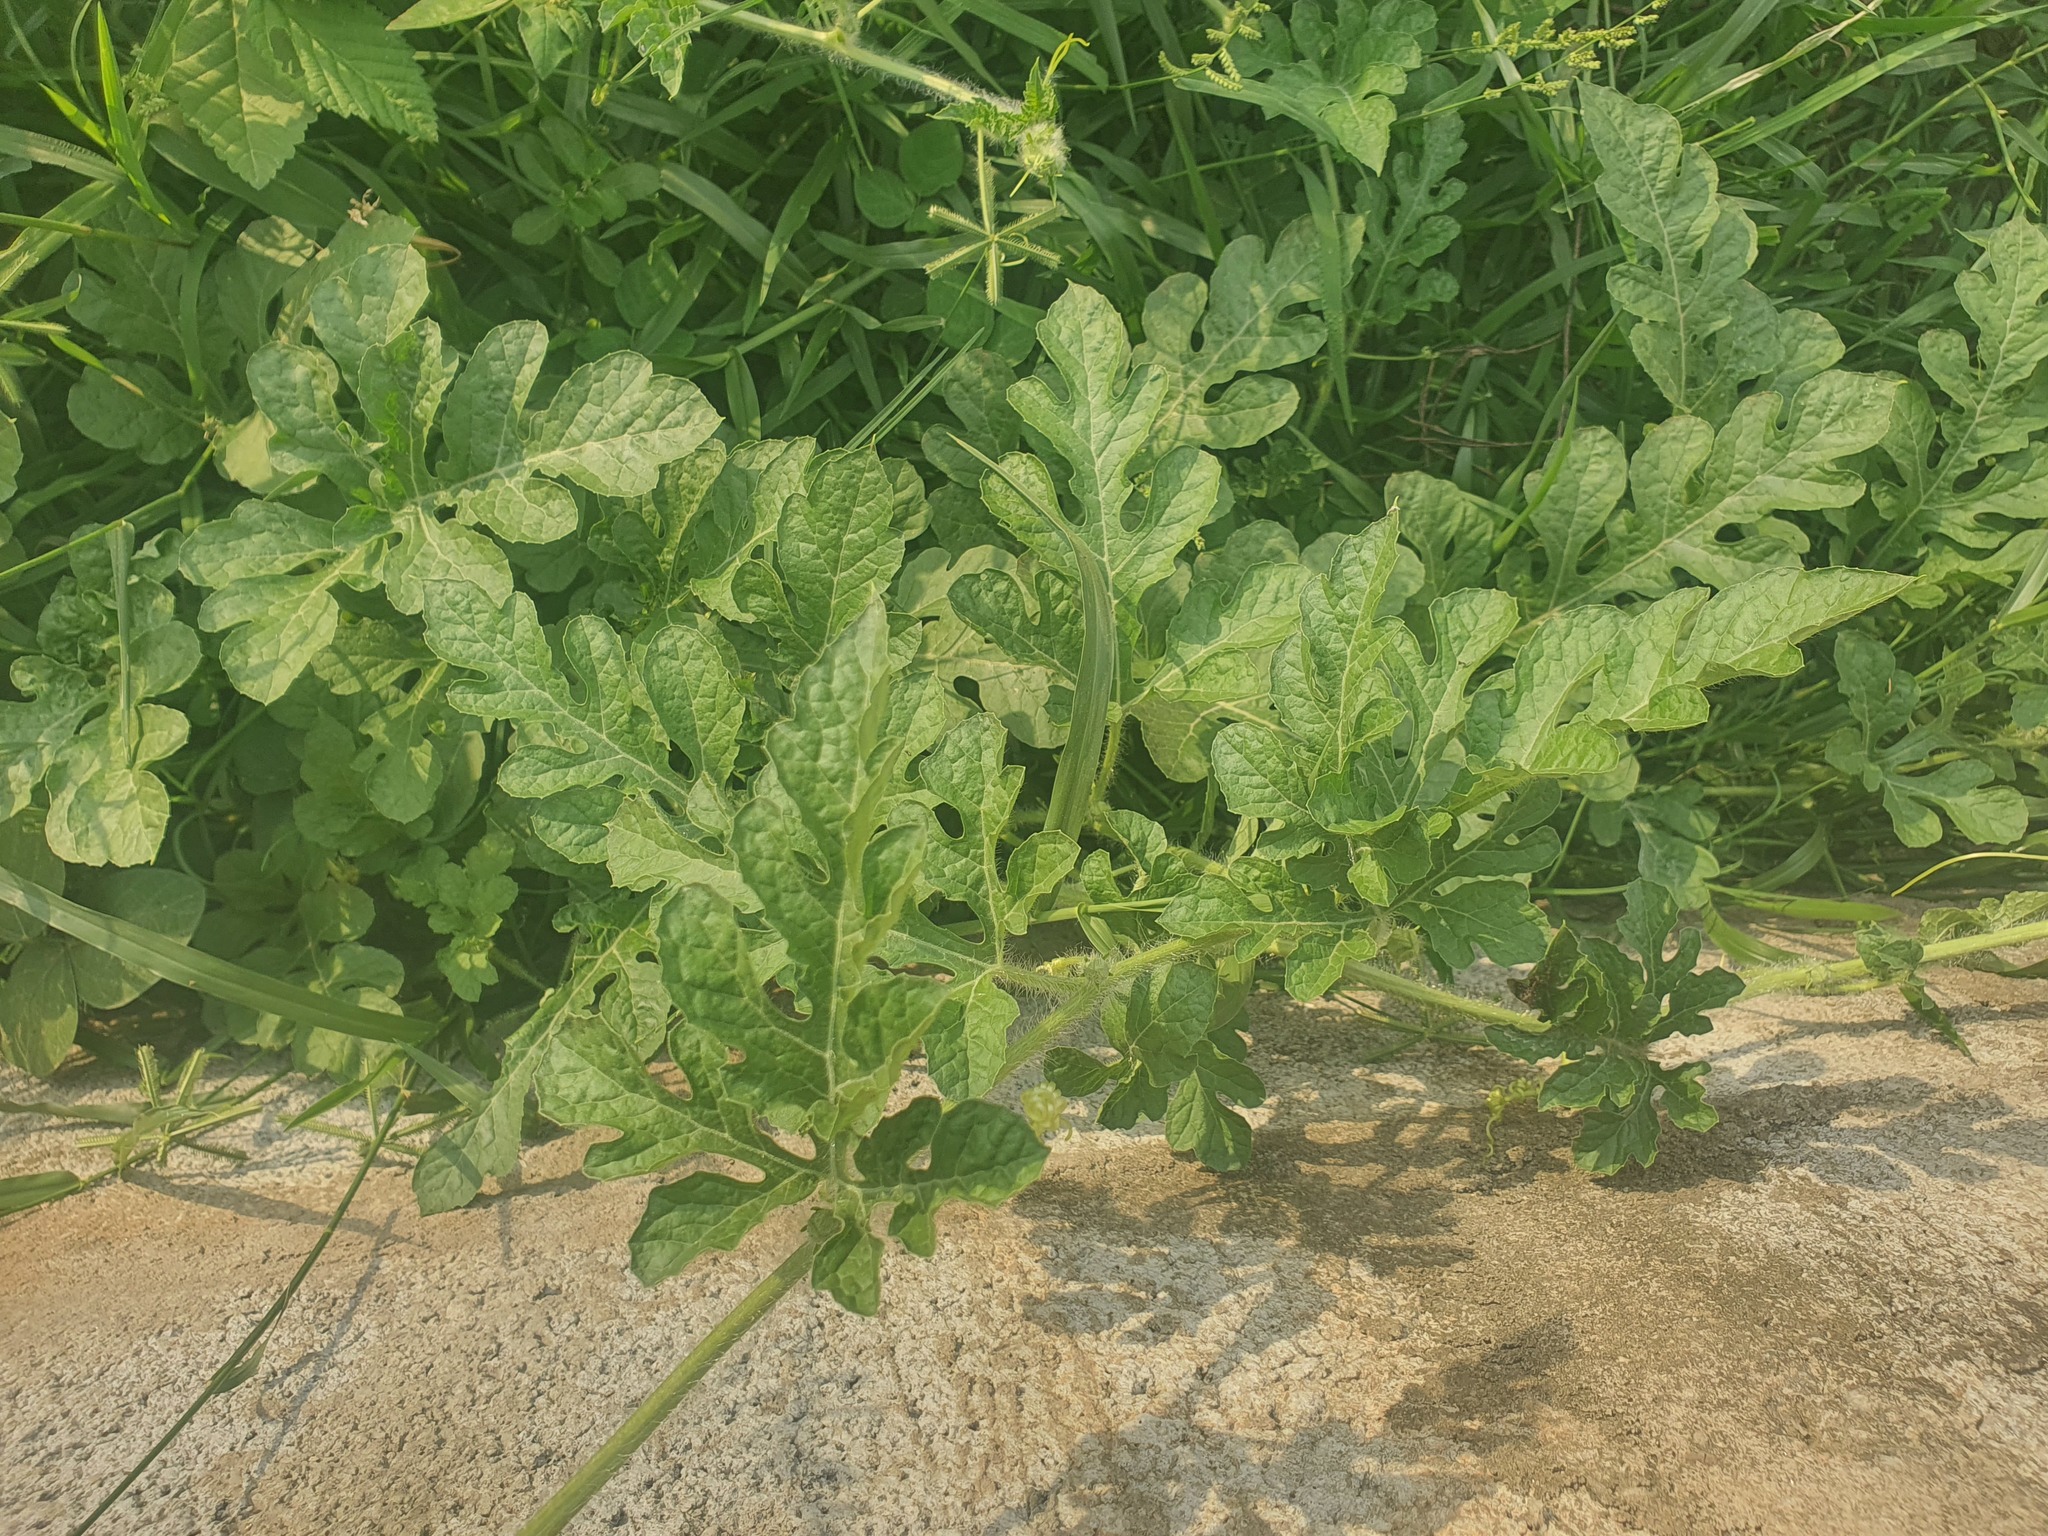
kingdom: Plantae
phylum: Tracheophyta
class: Magnoliopsida
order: Cucurbitales
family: Cucurbitaceae
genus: Citrullus
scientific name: Citrullus lanatus
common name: Watermelon
